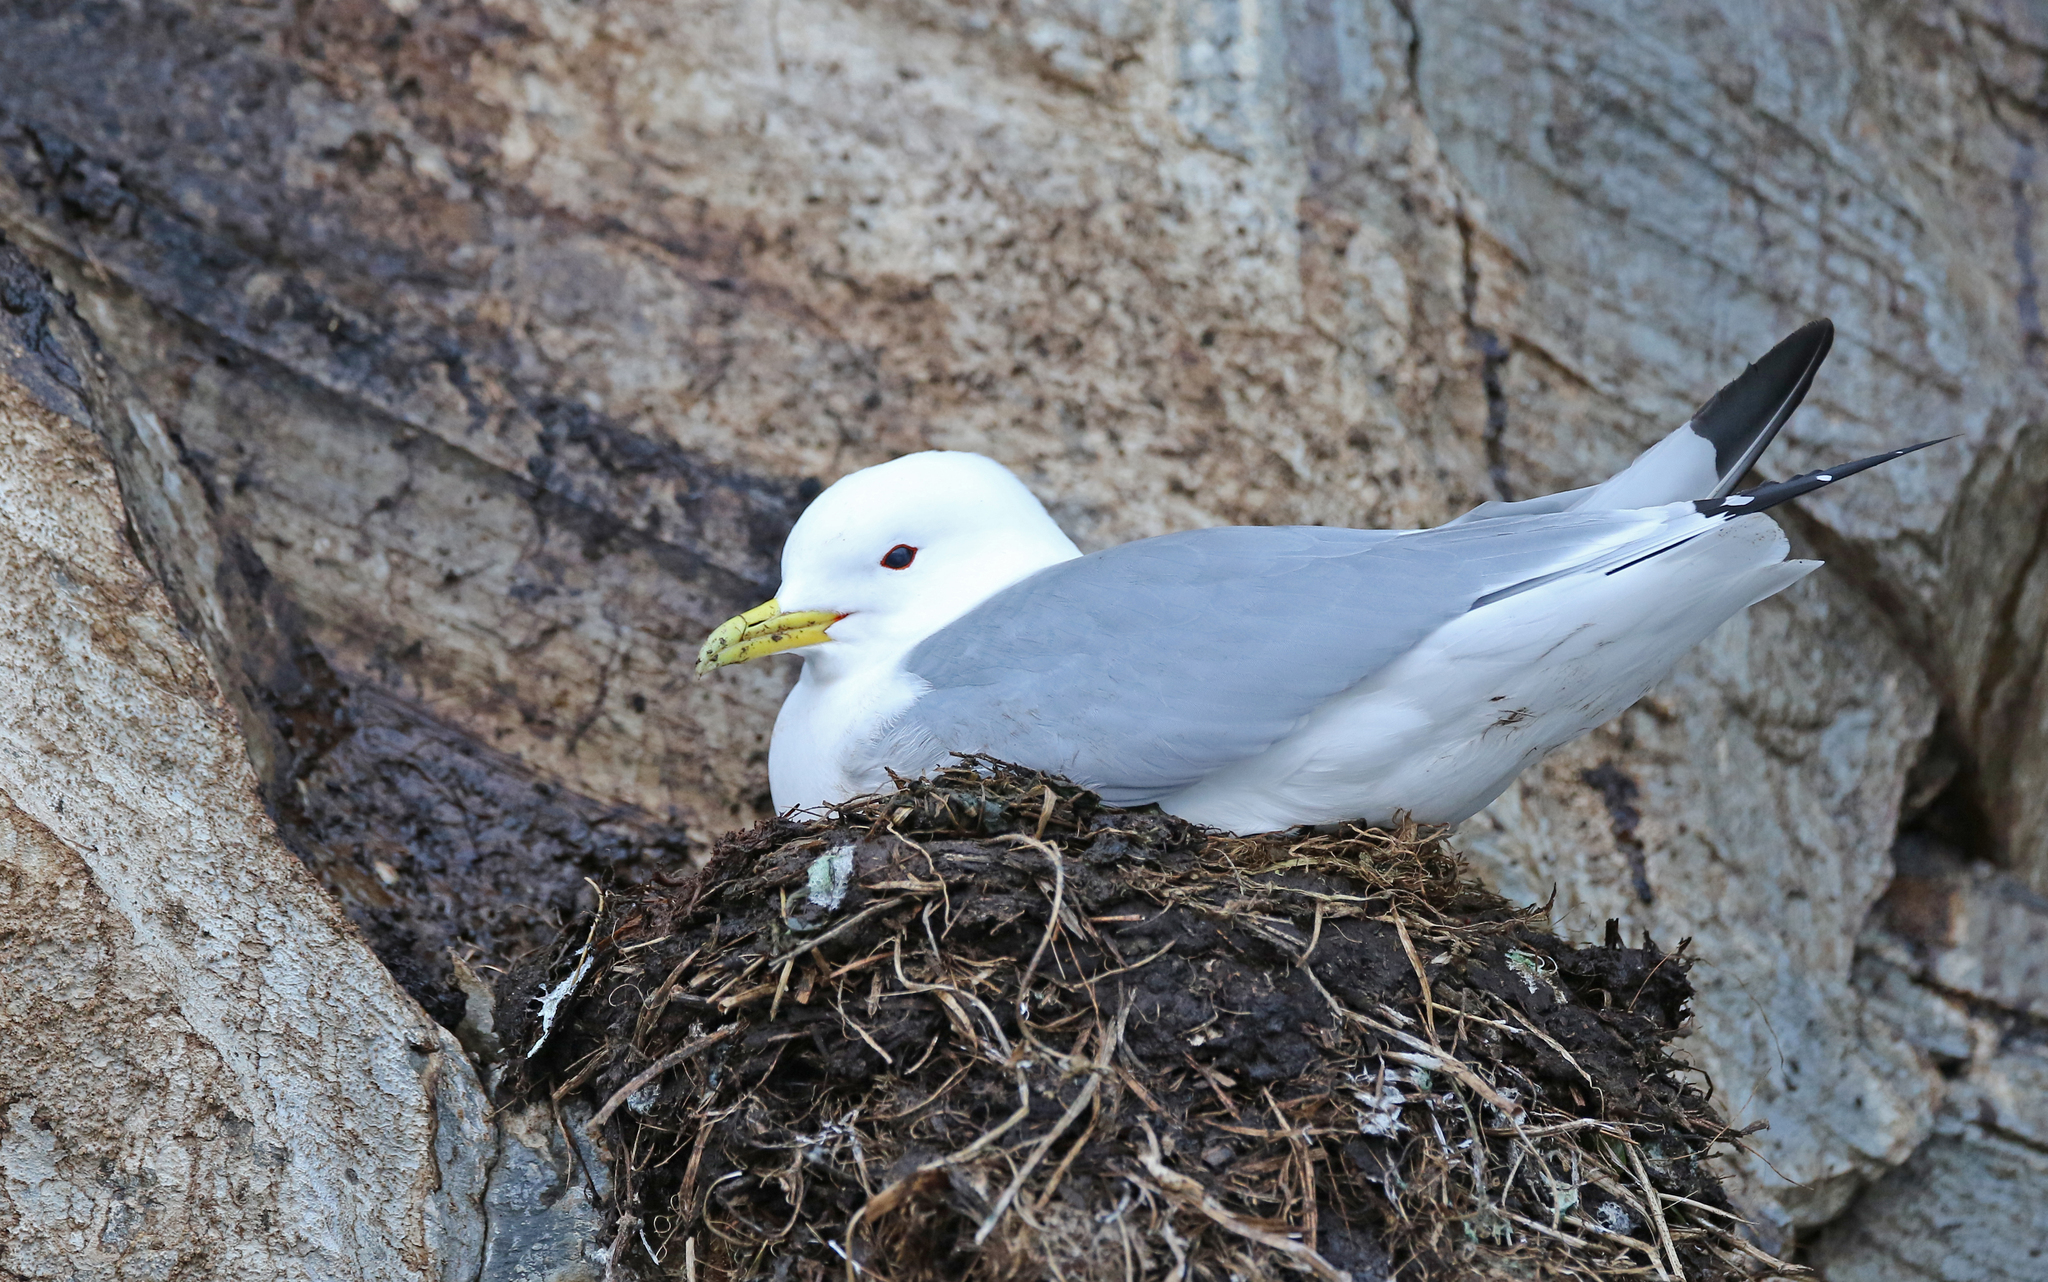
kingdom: Animalia
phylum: Chordata
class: Aves
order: Charadriiformes
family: Laridae
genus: Rissa
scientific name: Rissa tridactyla
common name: Black-legged kittiwake
